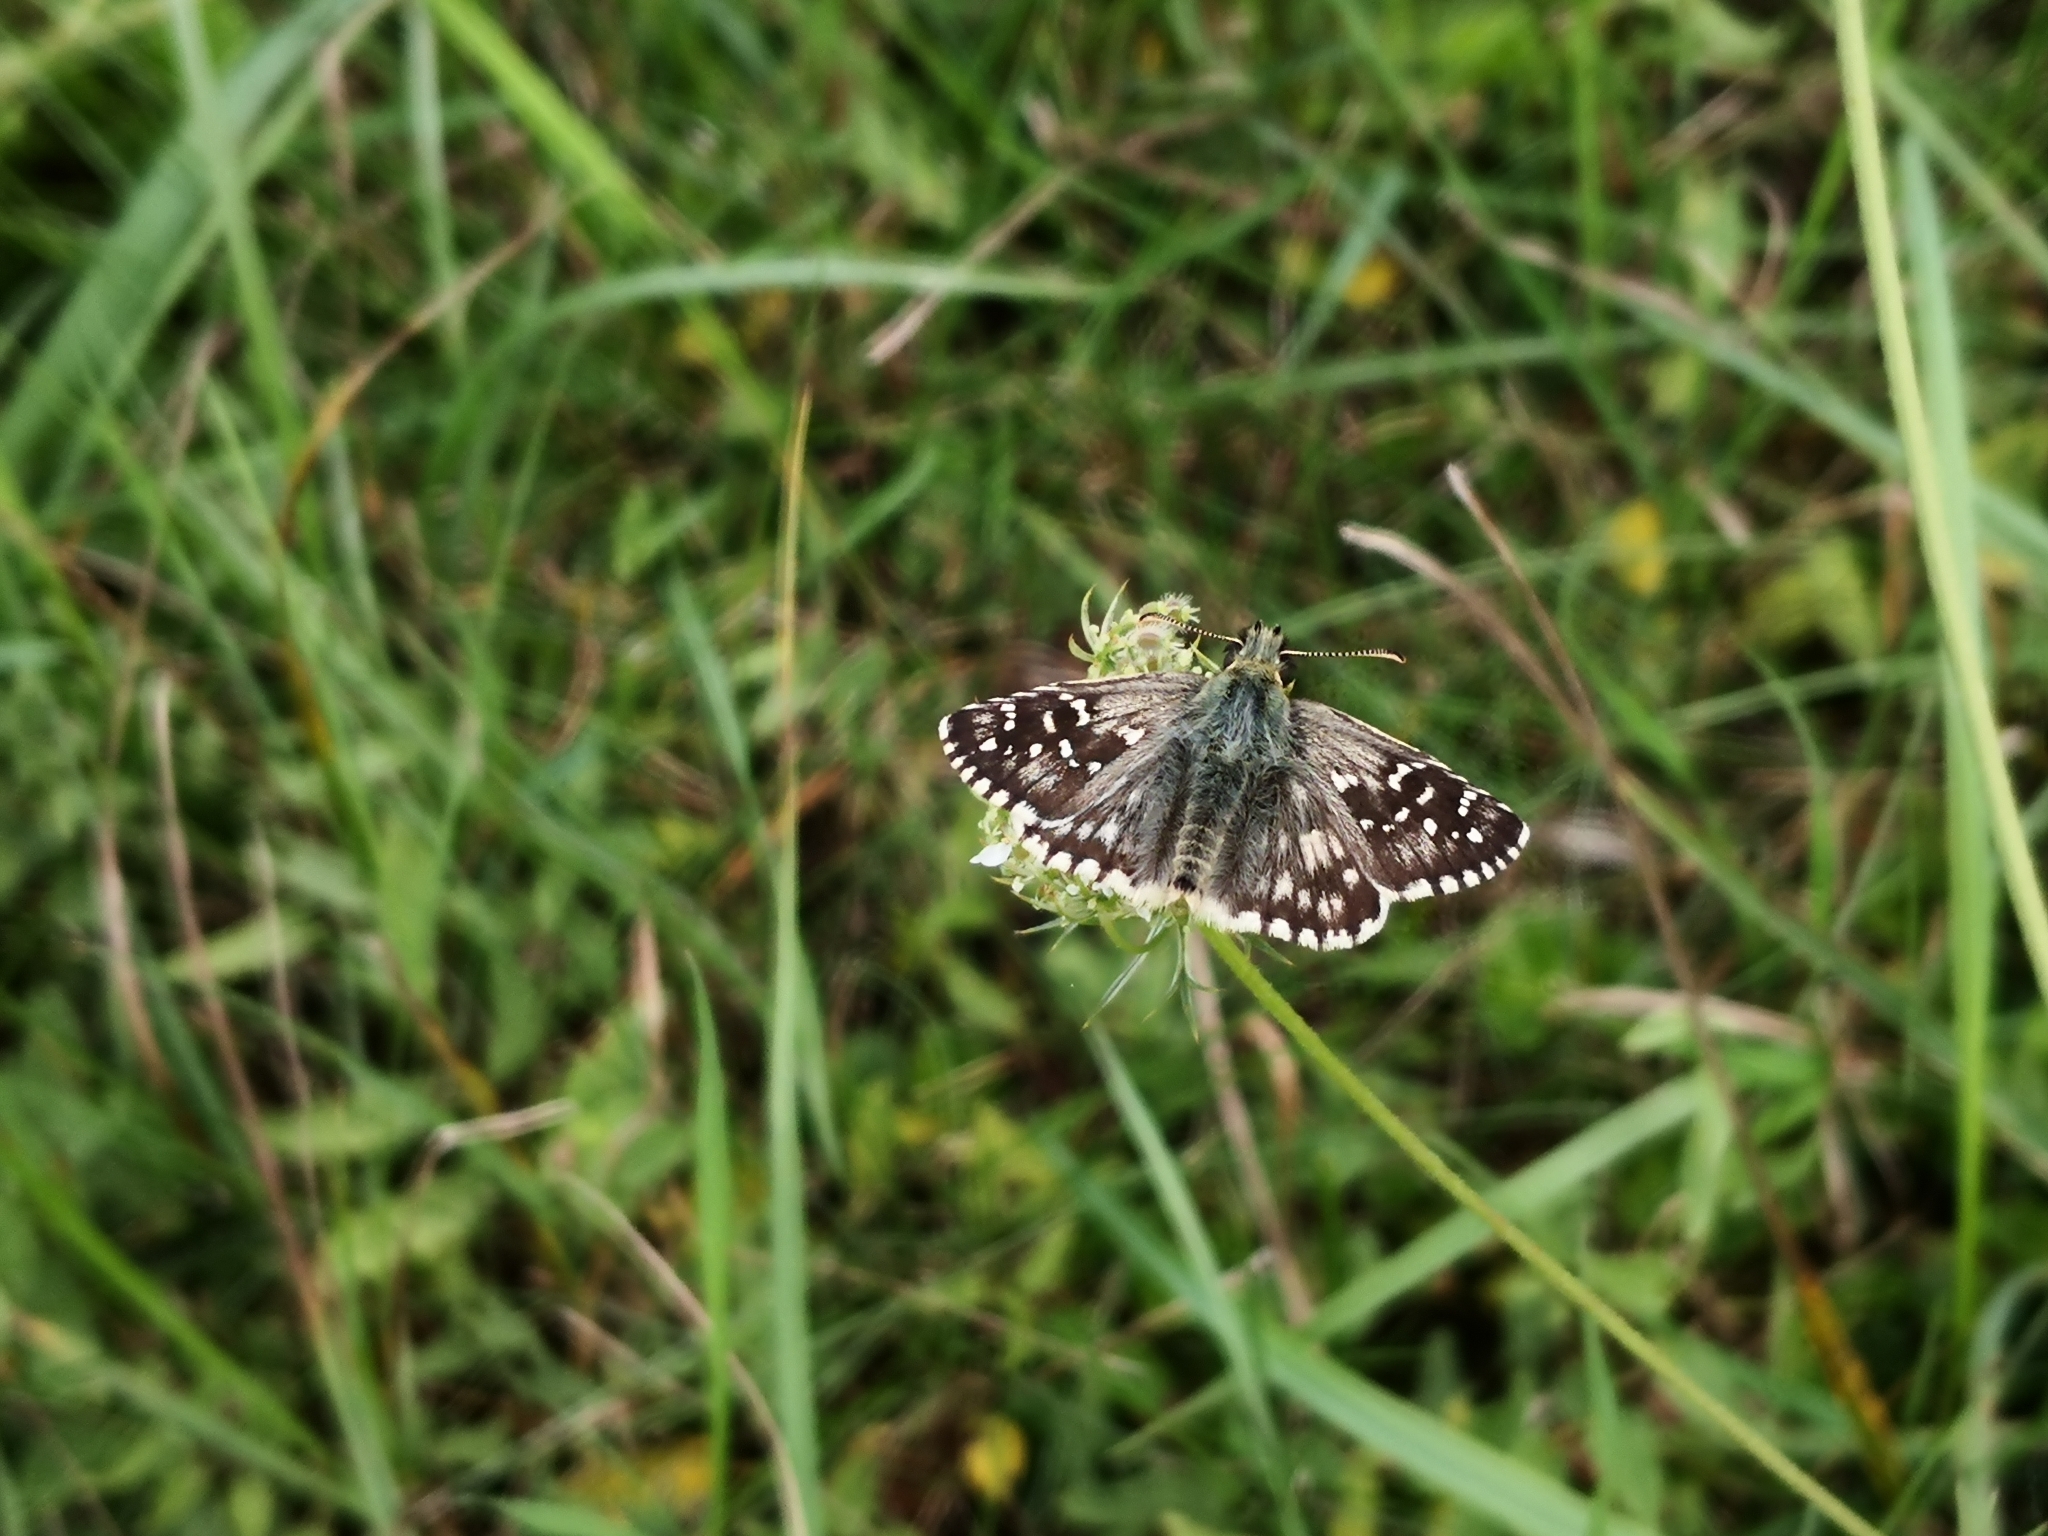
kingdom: Animalia
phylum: Arthropoda
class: Insecta
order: Lepidoptera
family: Hesperiidae
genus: Pyrgus
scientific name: Pyrgus armoricanus
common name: Oberthür's grizzled skipper
